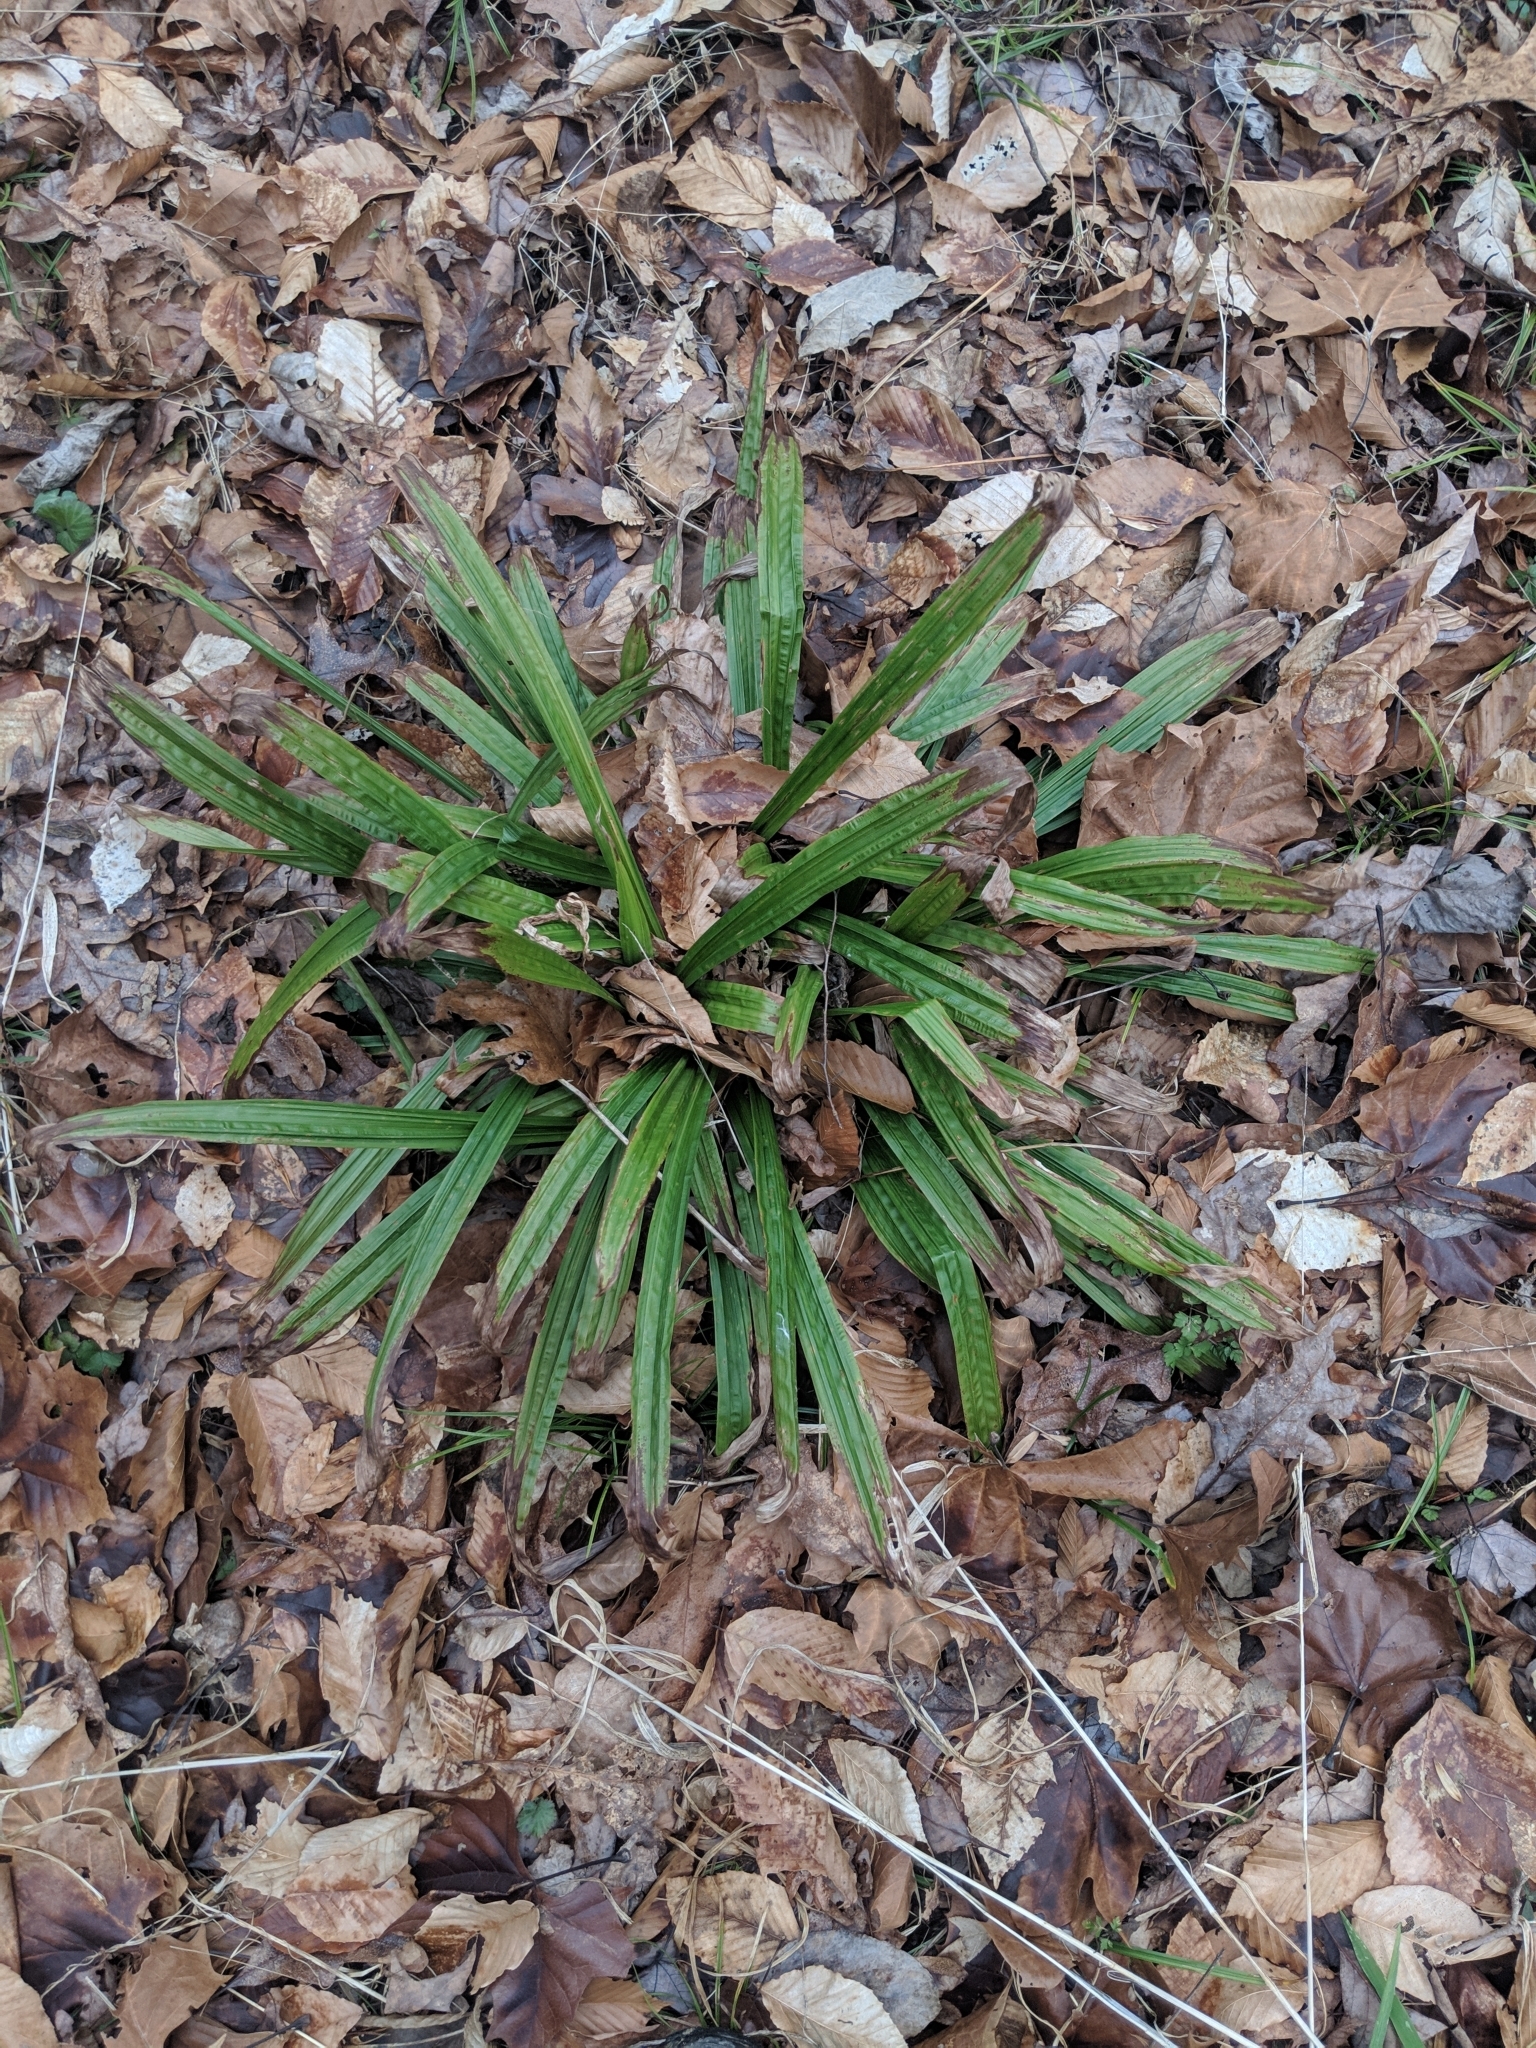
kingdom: Plantae
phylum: Tracheophyta
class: Liliopsida
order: Poales
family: Cyperaceae
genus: Carex
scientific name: Carex plantaginea
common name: Plantain-leaved sedge
